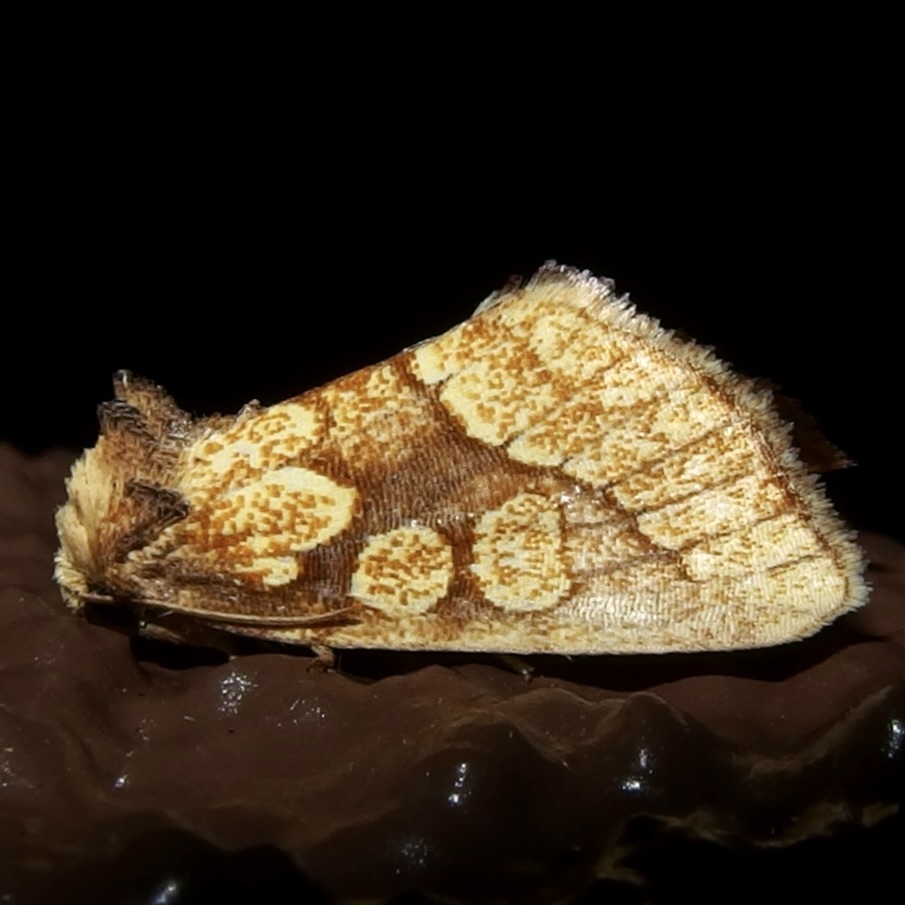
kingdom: Animalia
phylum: Arthropoda
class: Insecta
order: Lepidoptera
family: Noctuidae
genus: Nocloa
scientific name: Nocloa alcandra
